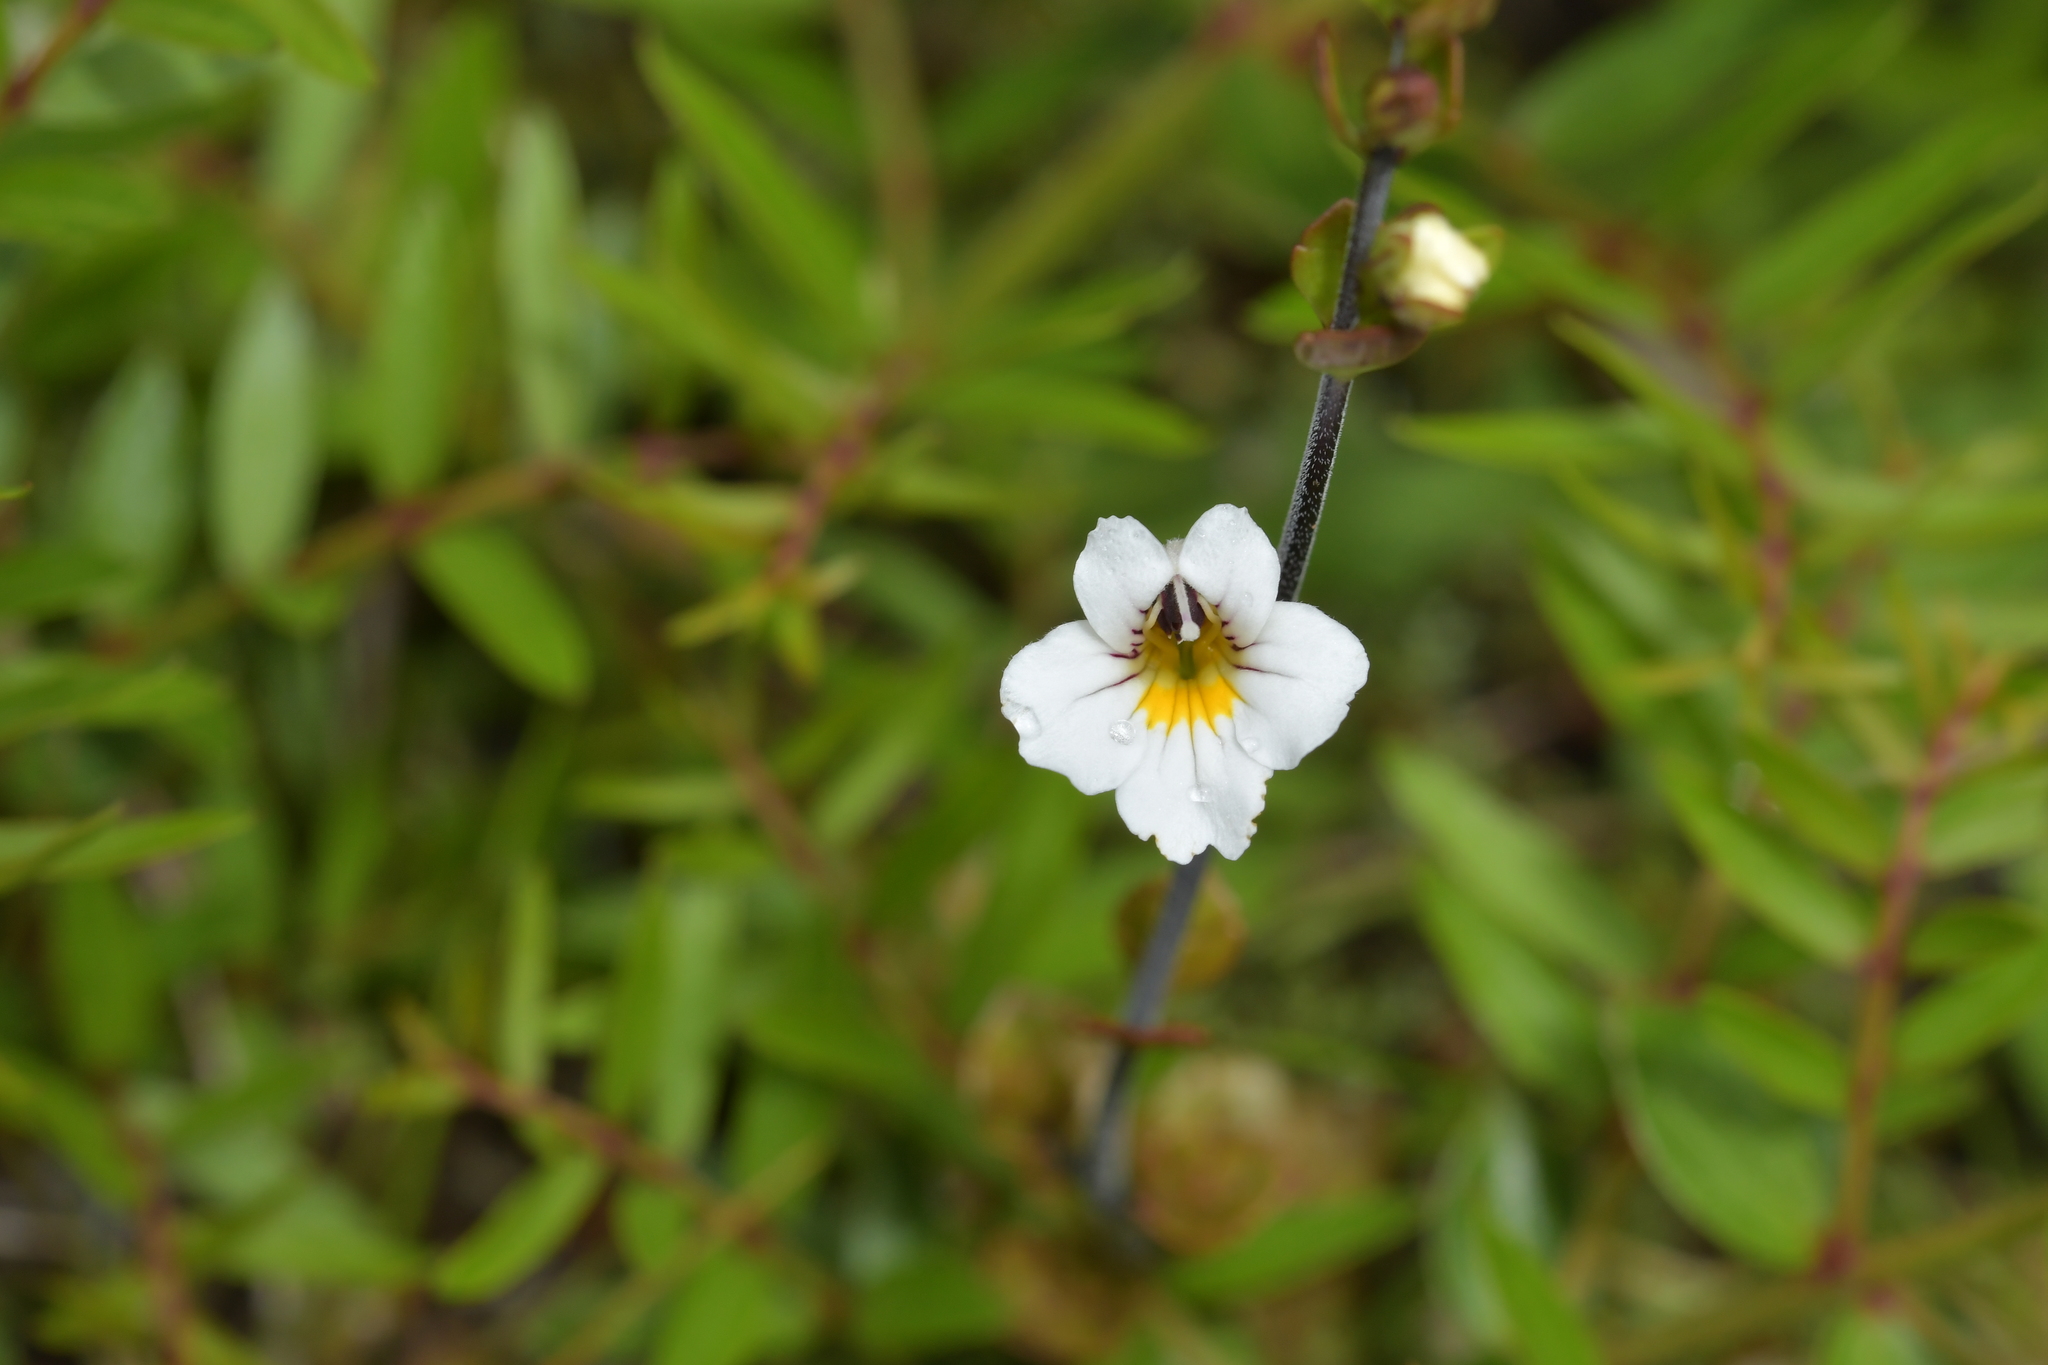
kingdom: Plantae
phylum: Tracheophyta
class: Magnoliopsida
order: Lamiales
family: Orobanchaceae
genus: Euphrasia
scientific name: Euphrasia cuneata
